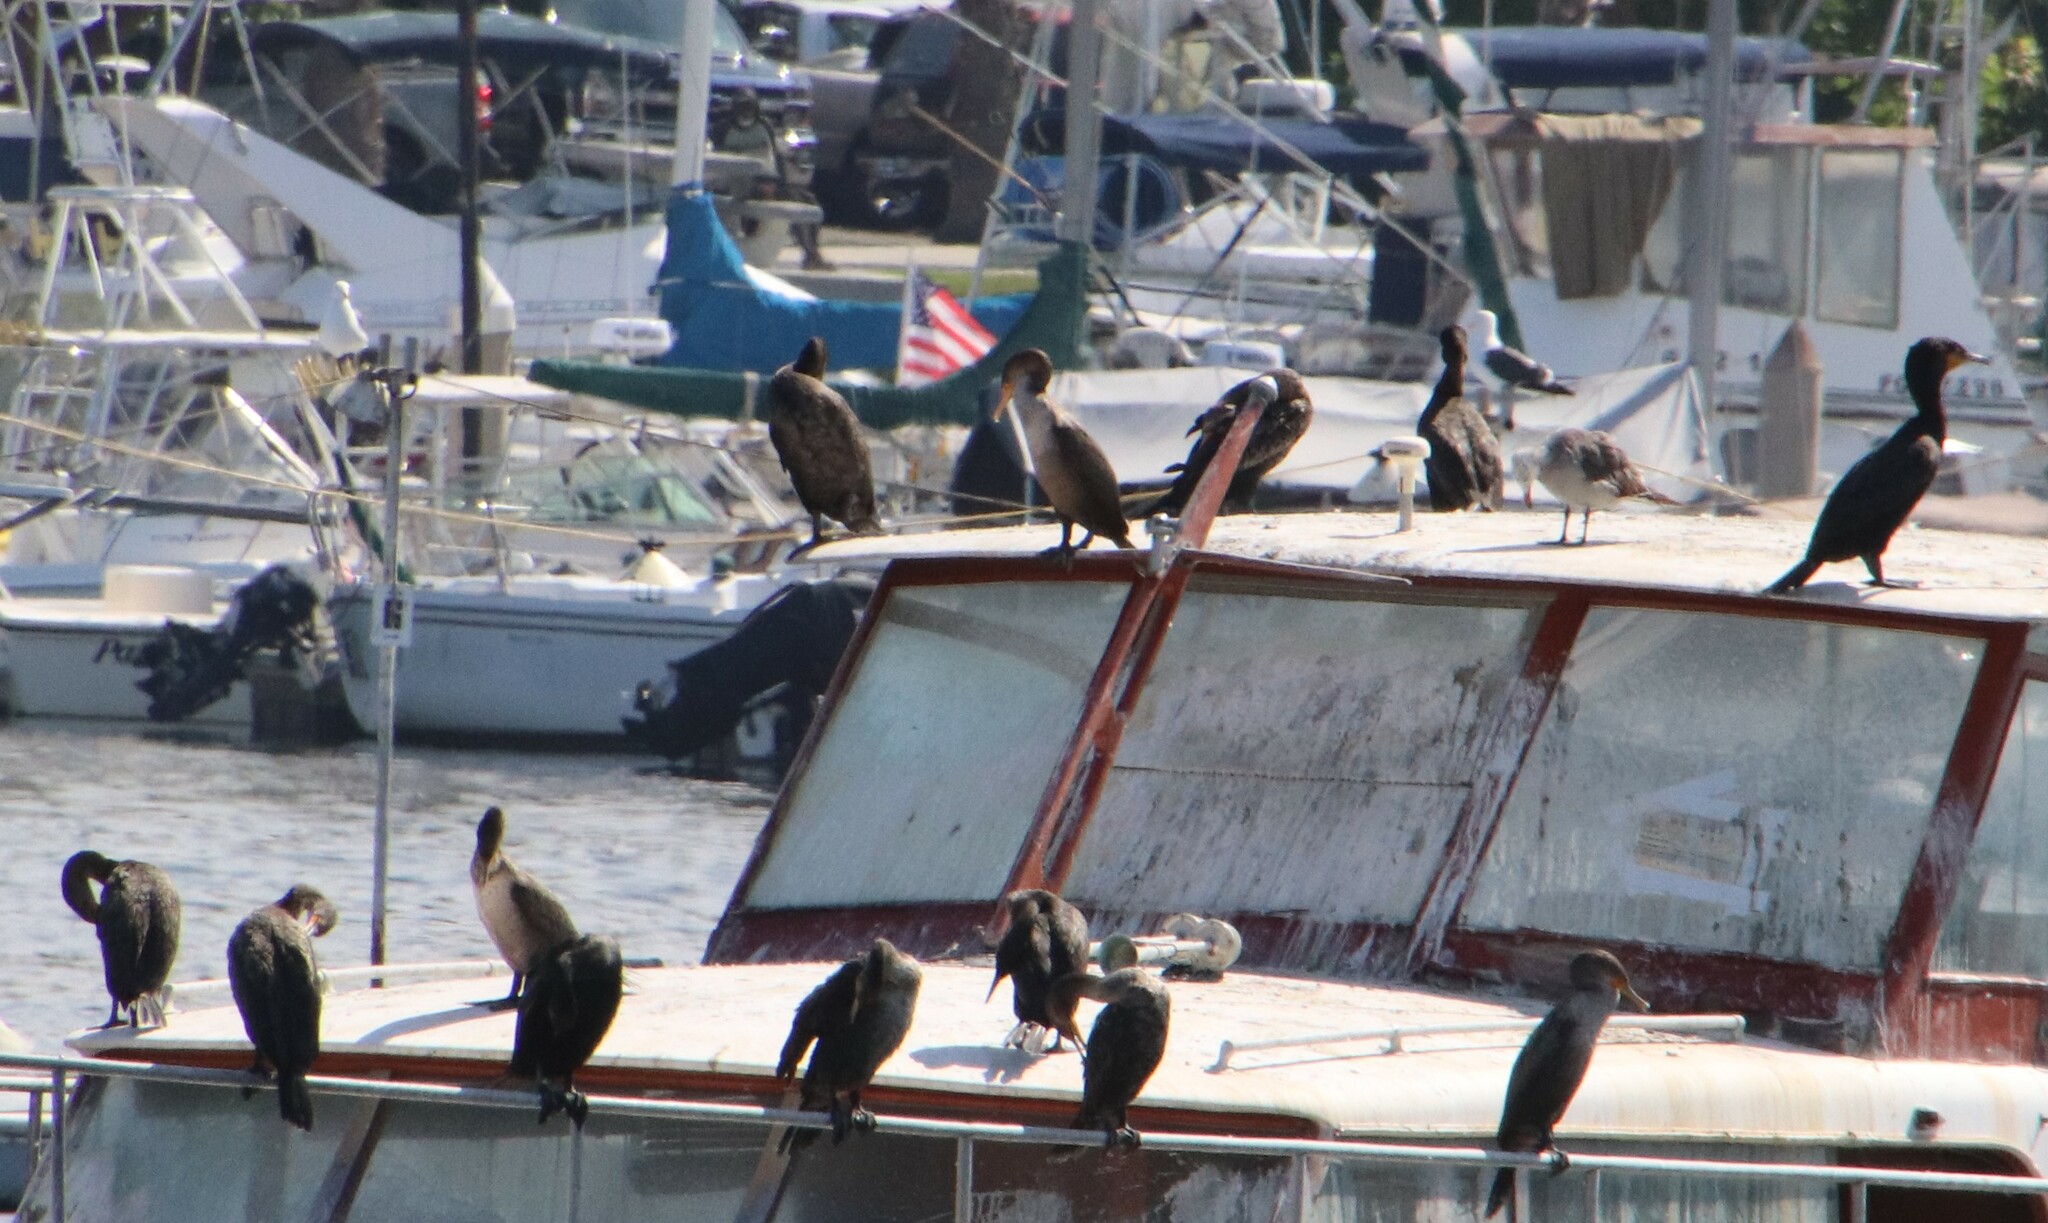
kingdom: Animalia
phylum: Chordata
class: Aves
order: Suliformes
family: Phalacrocoracidae
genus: Phalacrocorax
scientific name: Phalacrocorax auritus
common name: Double-crested cormorant
